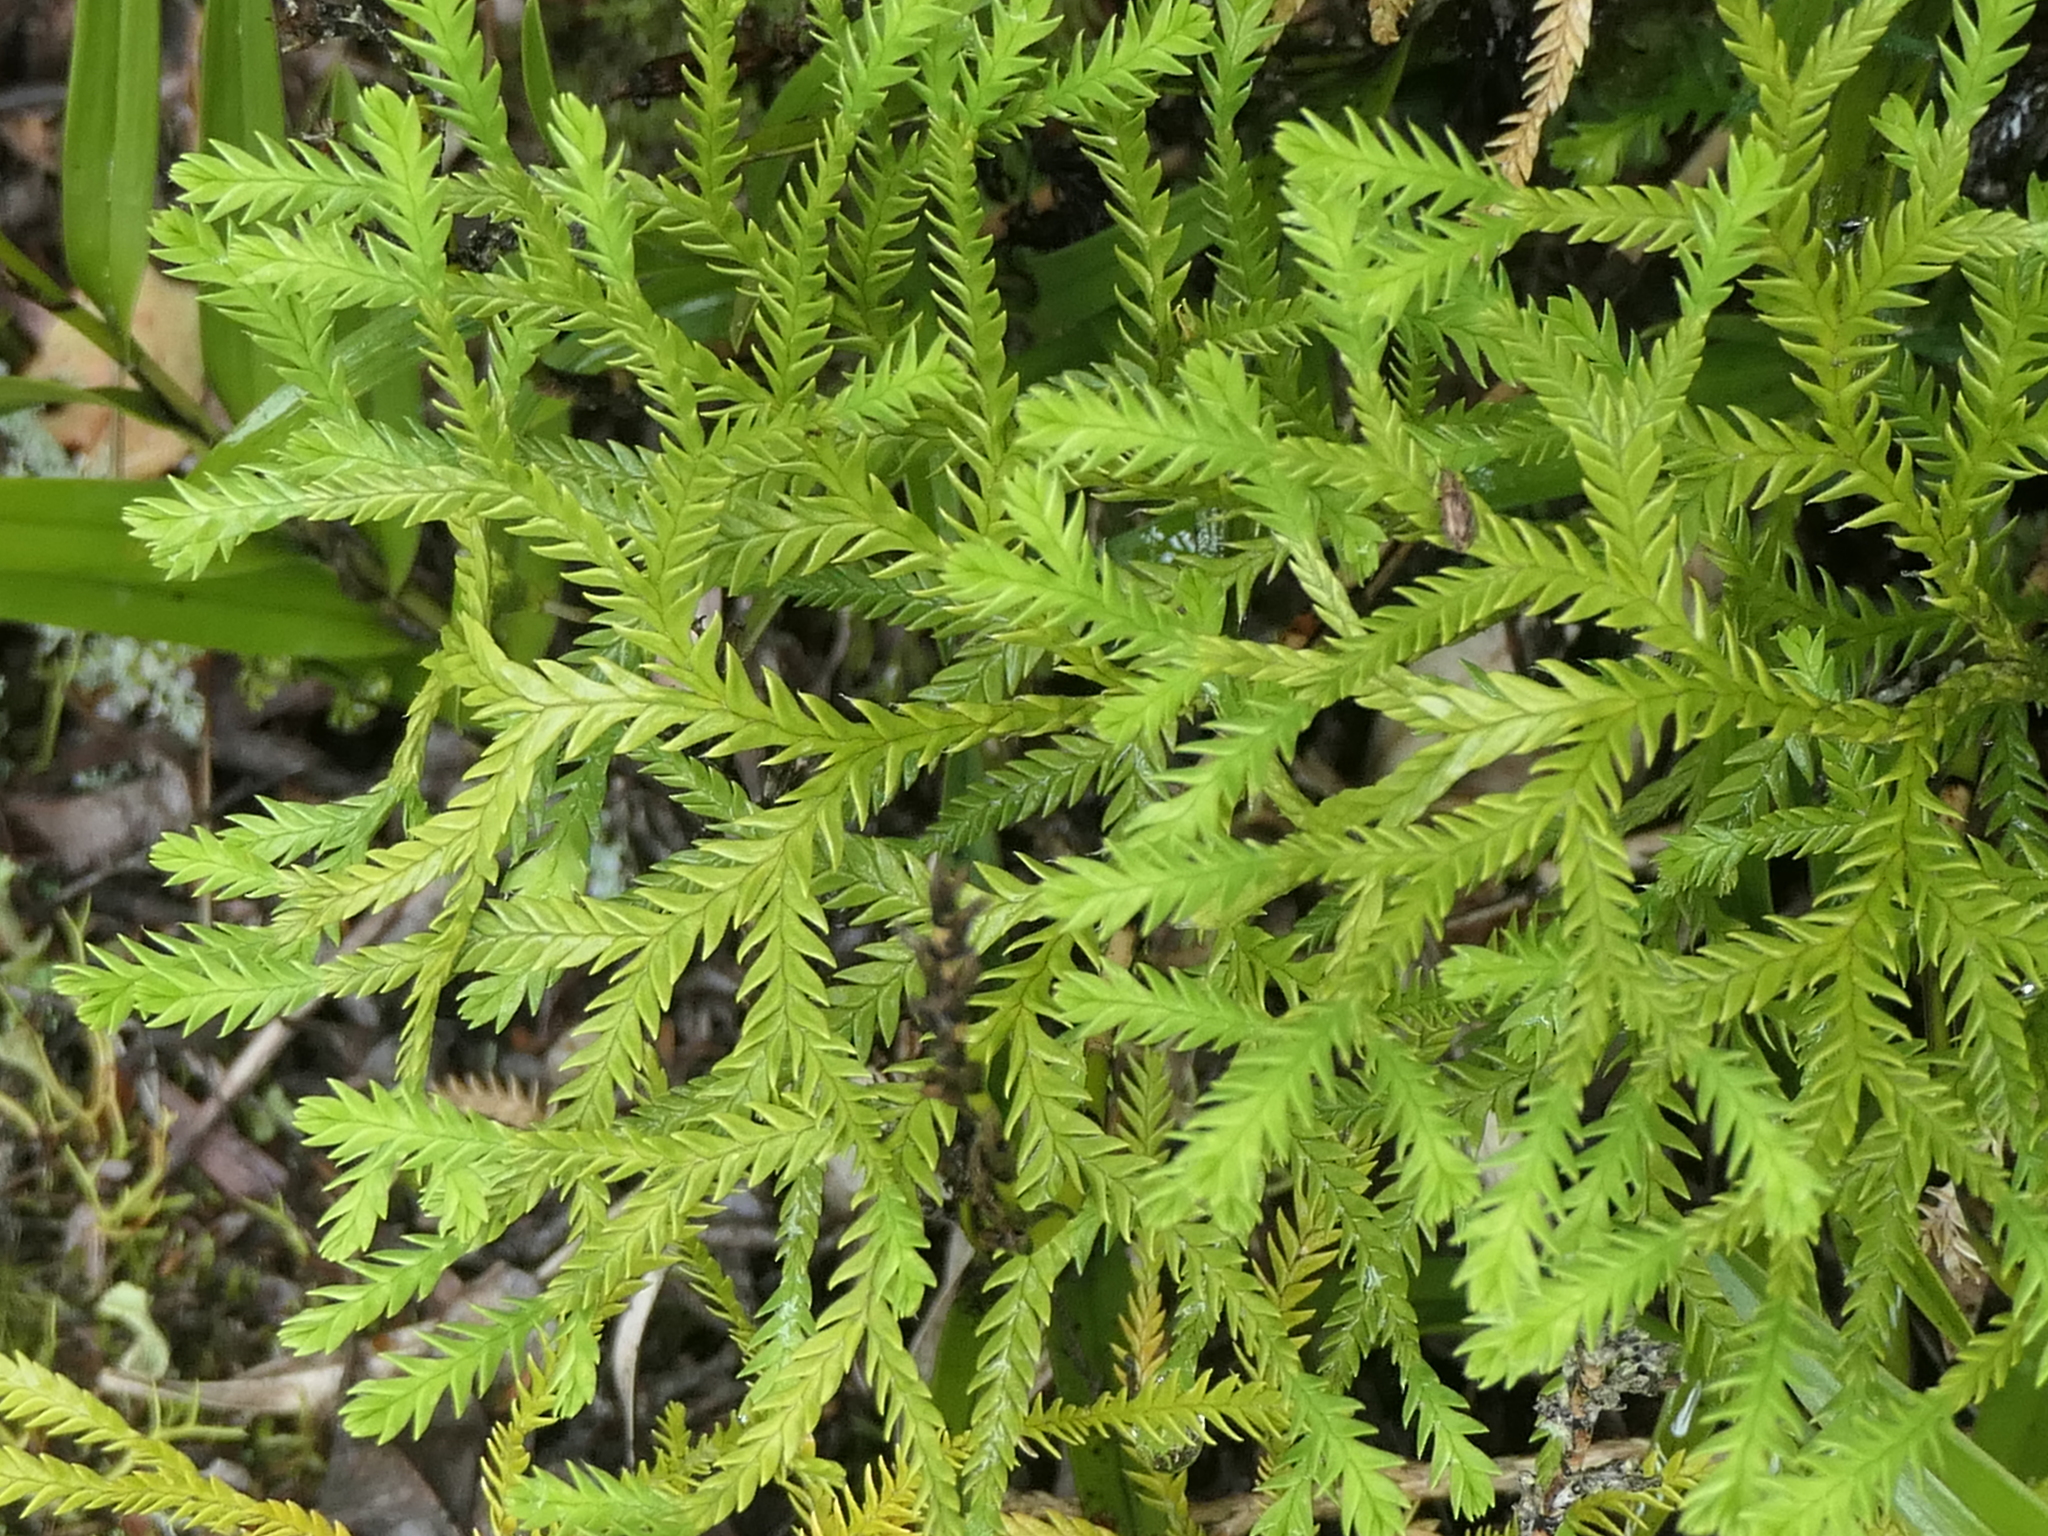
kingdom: Plantae
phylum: Tracheophyta
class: Lycopodiopsida
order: Lycopodiales
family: Lycopodiaceae
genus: Diphasium
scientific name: Diphasium scariosum
